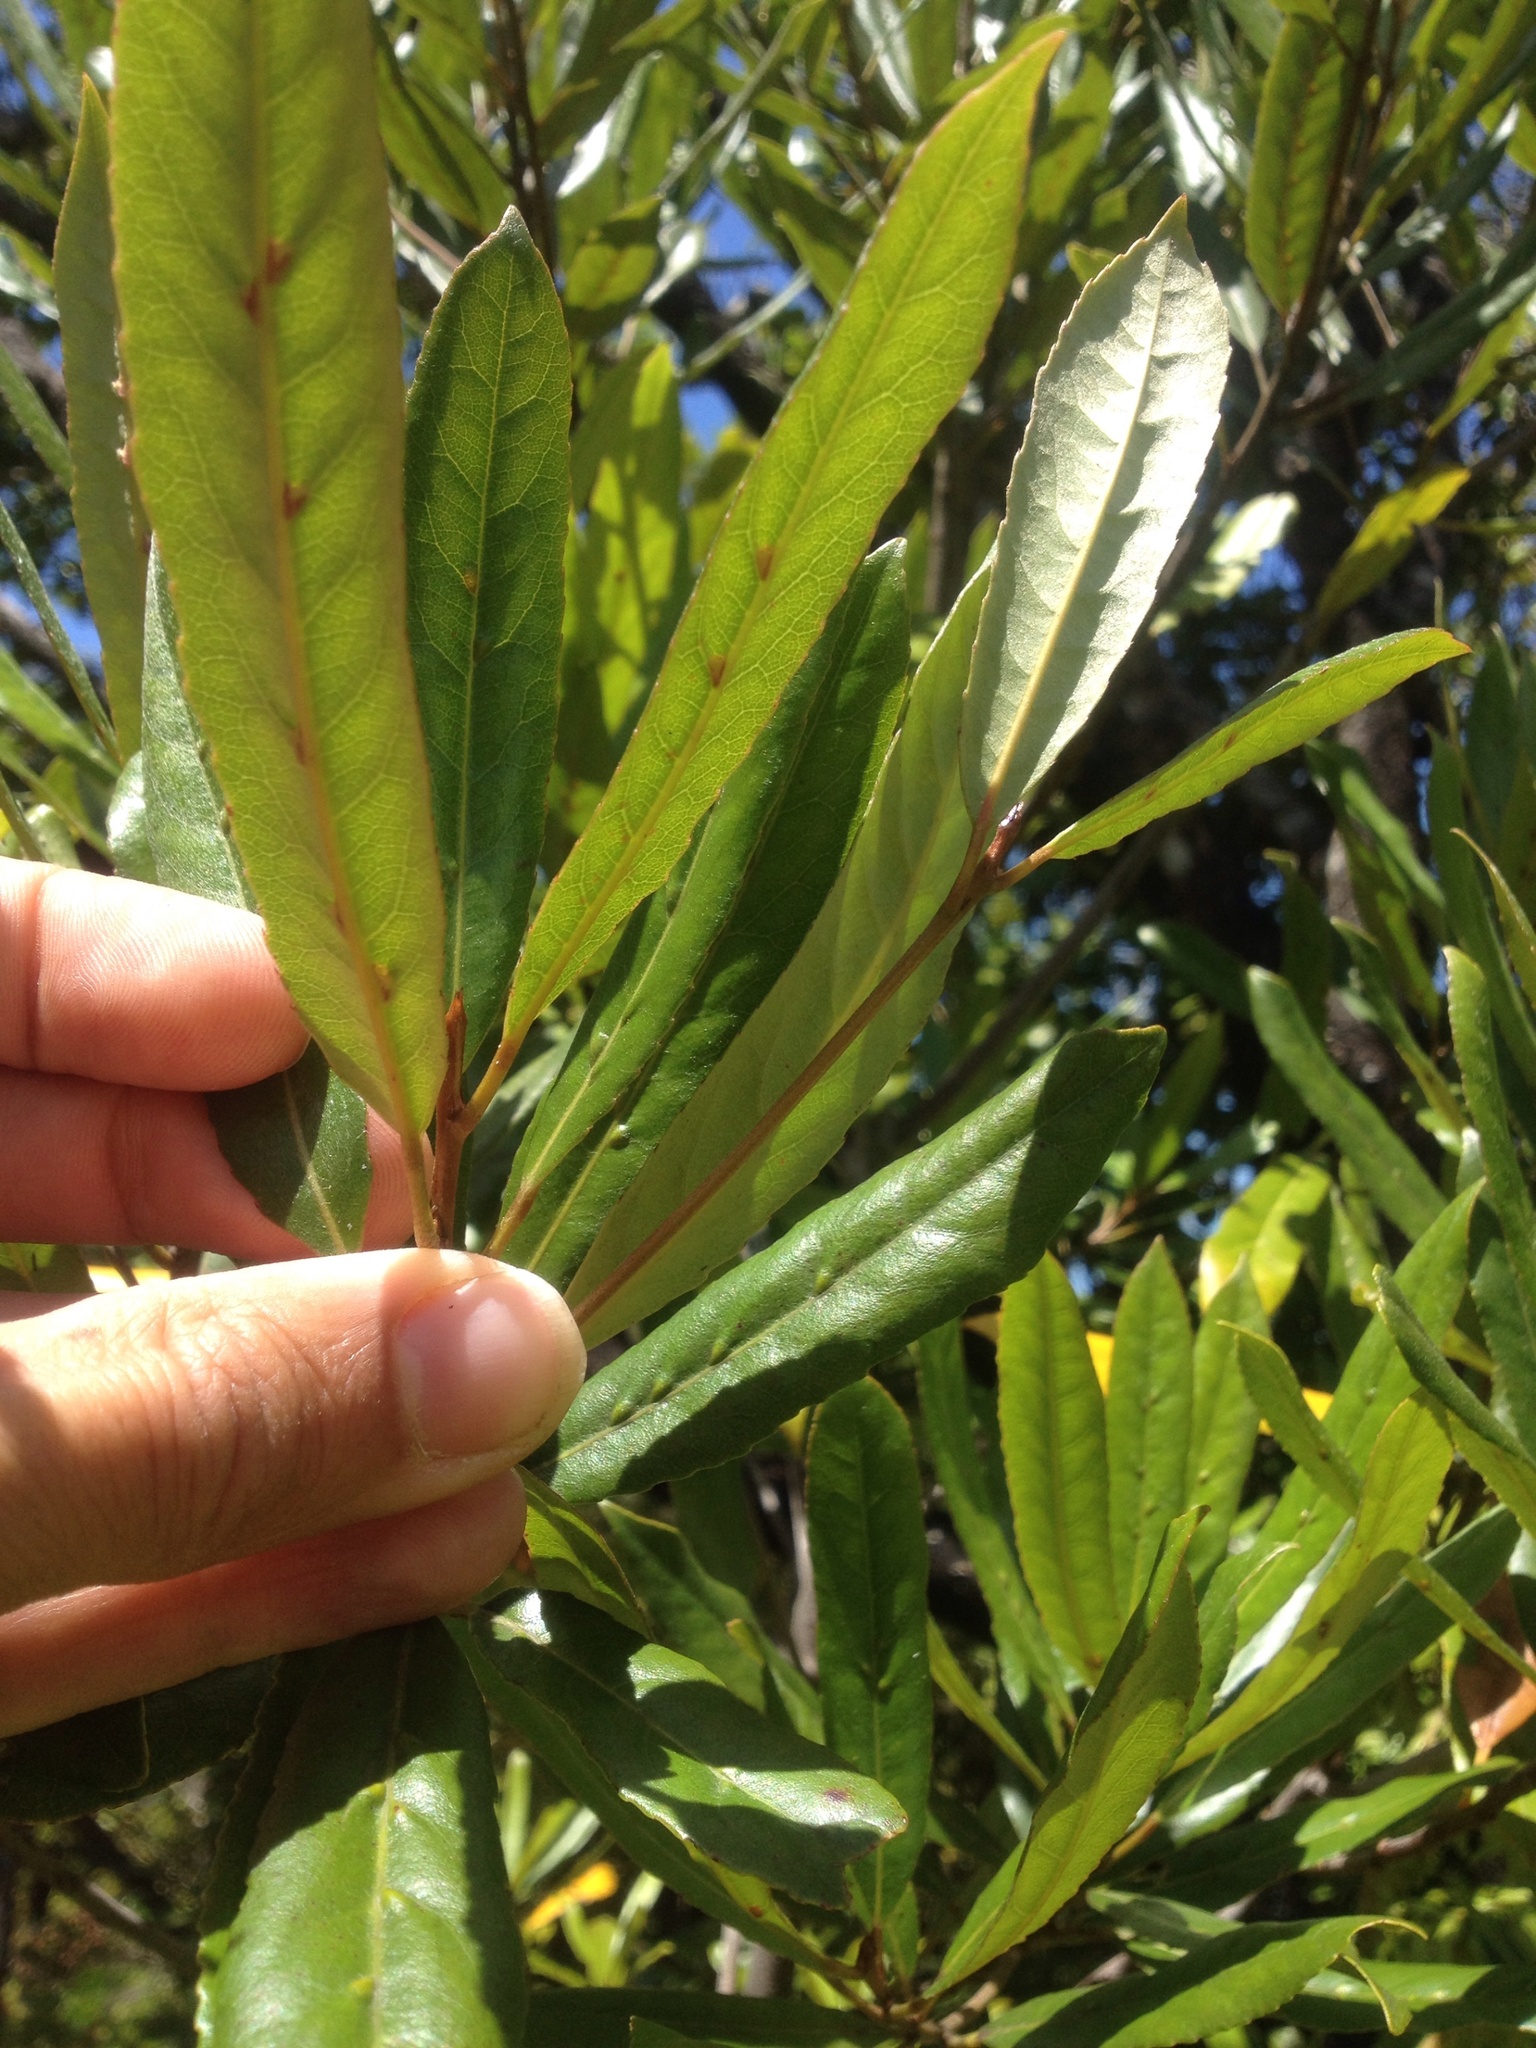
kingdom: Plantae
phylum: Tracheophyta
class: Magnoliopsida
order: Oxalidales
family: Elaeocarpaceae
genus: Elaeocarpus
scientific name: Elaeocarpus dentatus
